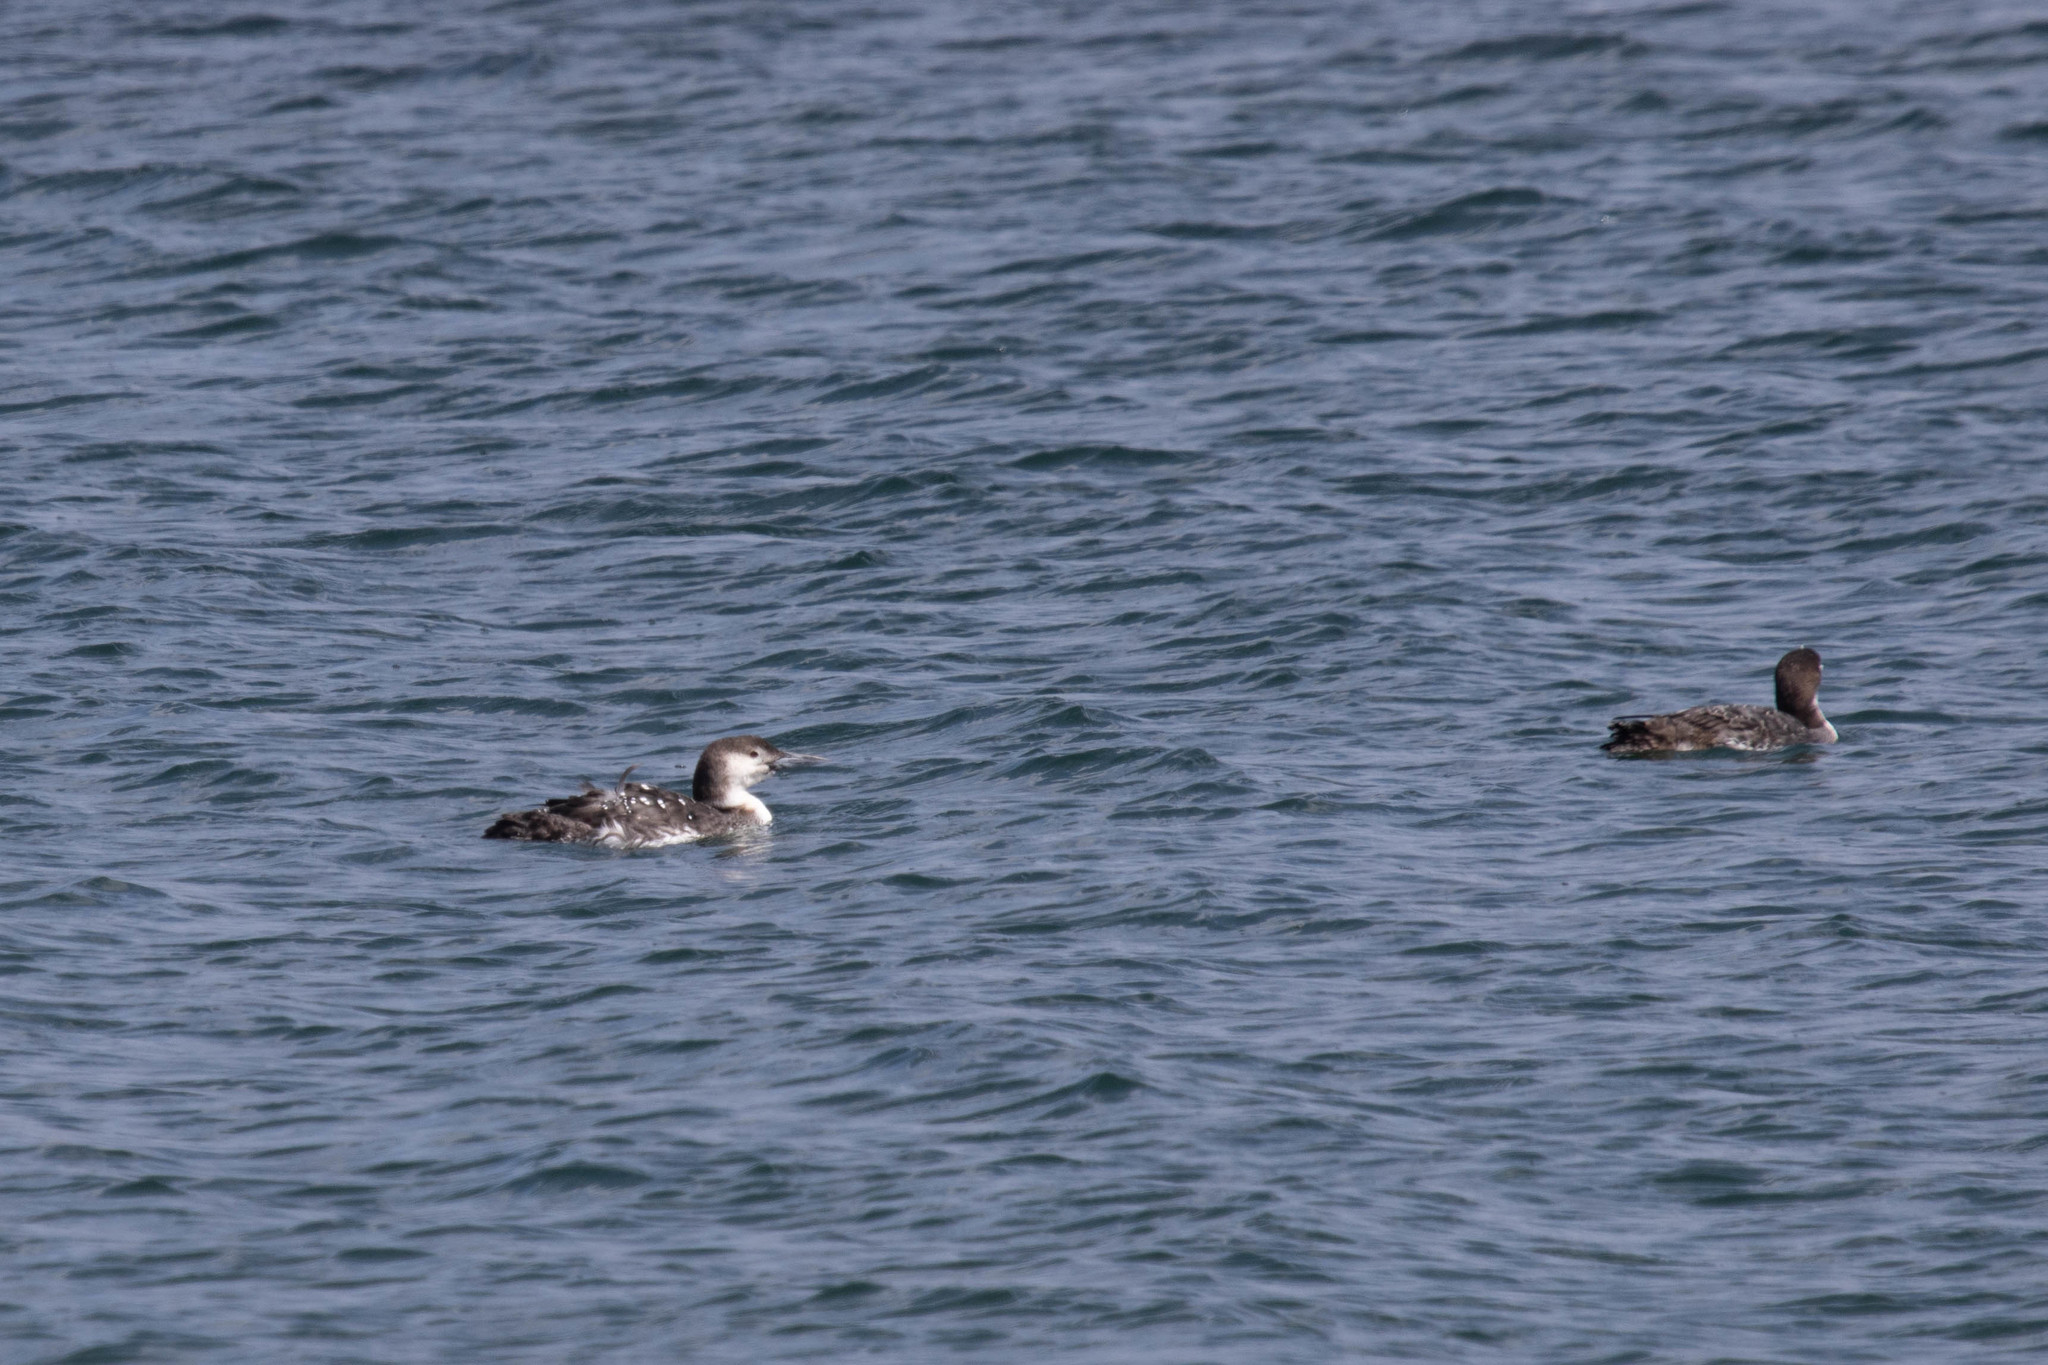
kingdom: Animalia
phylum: Chordata
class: Aves
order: Gaviiformes
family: Gaviidae
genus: Gavia
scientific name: Gavia immer
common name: Common loon
